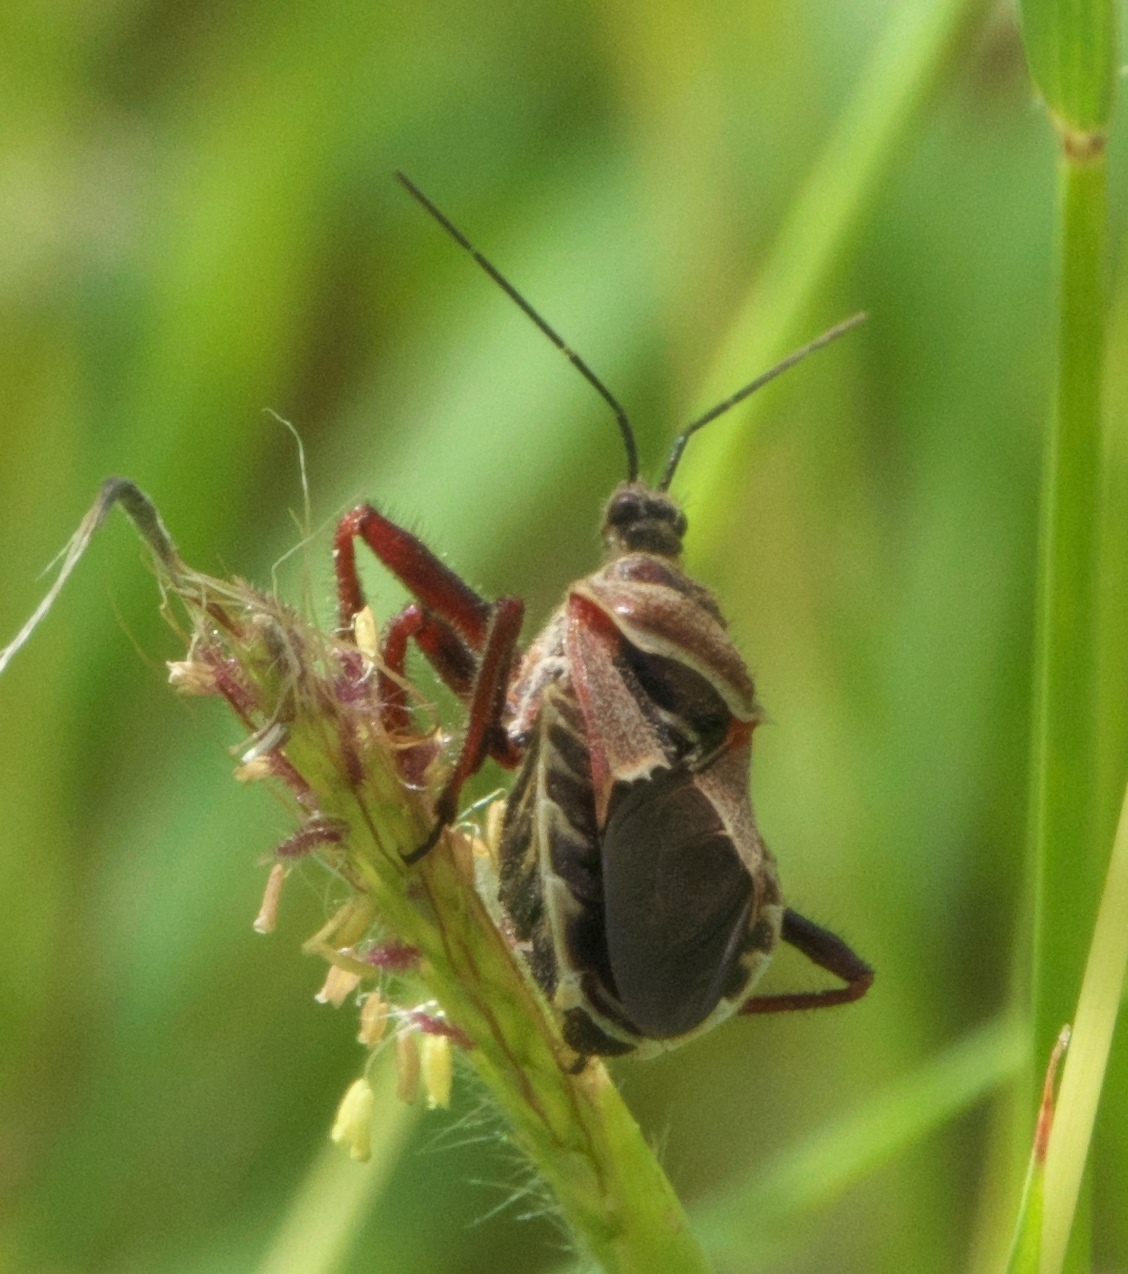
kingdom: Animalia
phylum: Arthropoda
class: Insecta
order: Hemiptera
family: Reduviidae
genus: Apiomerus
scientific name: Apiomerus spissipes
